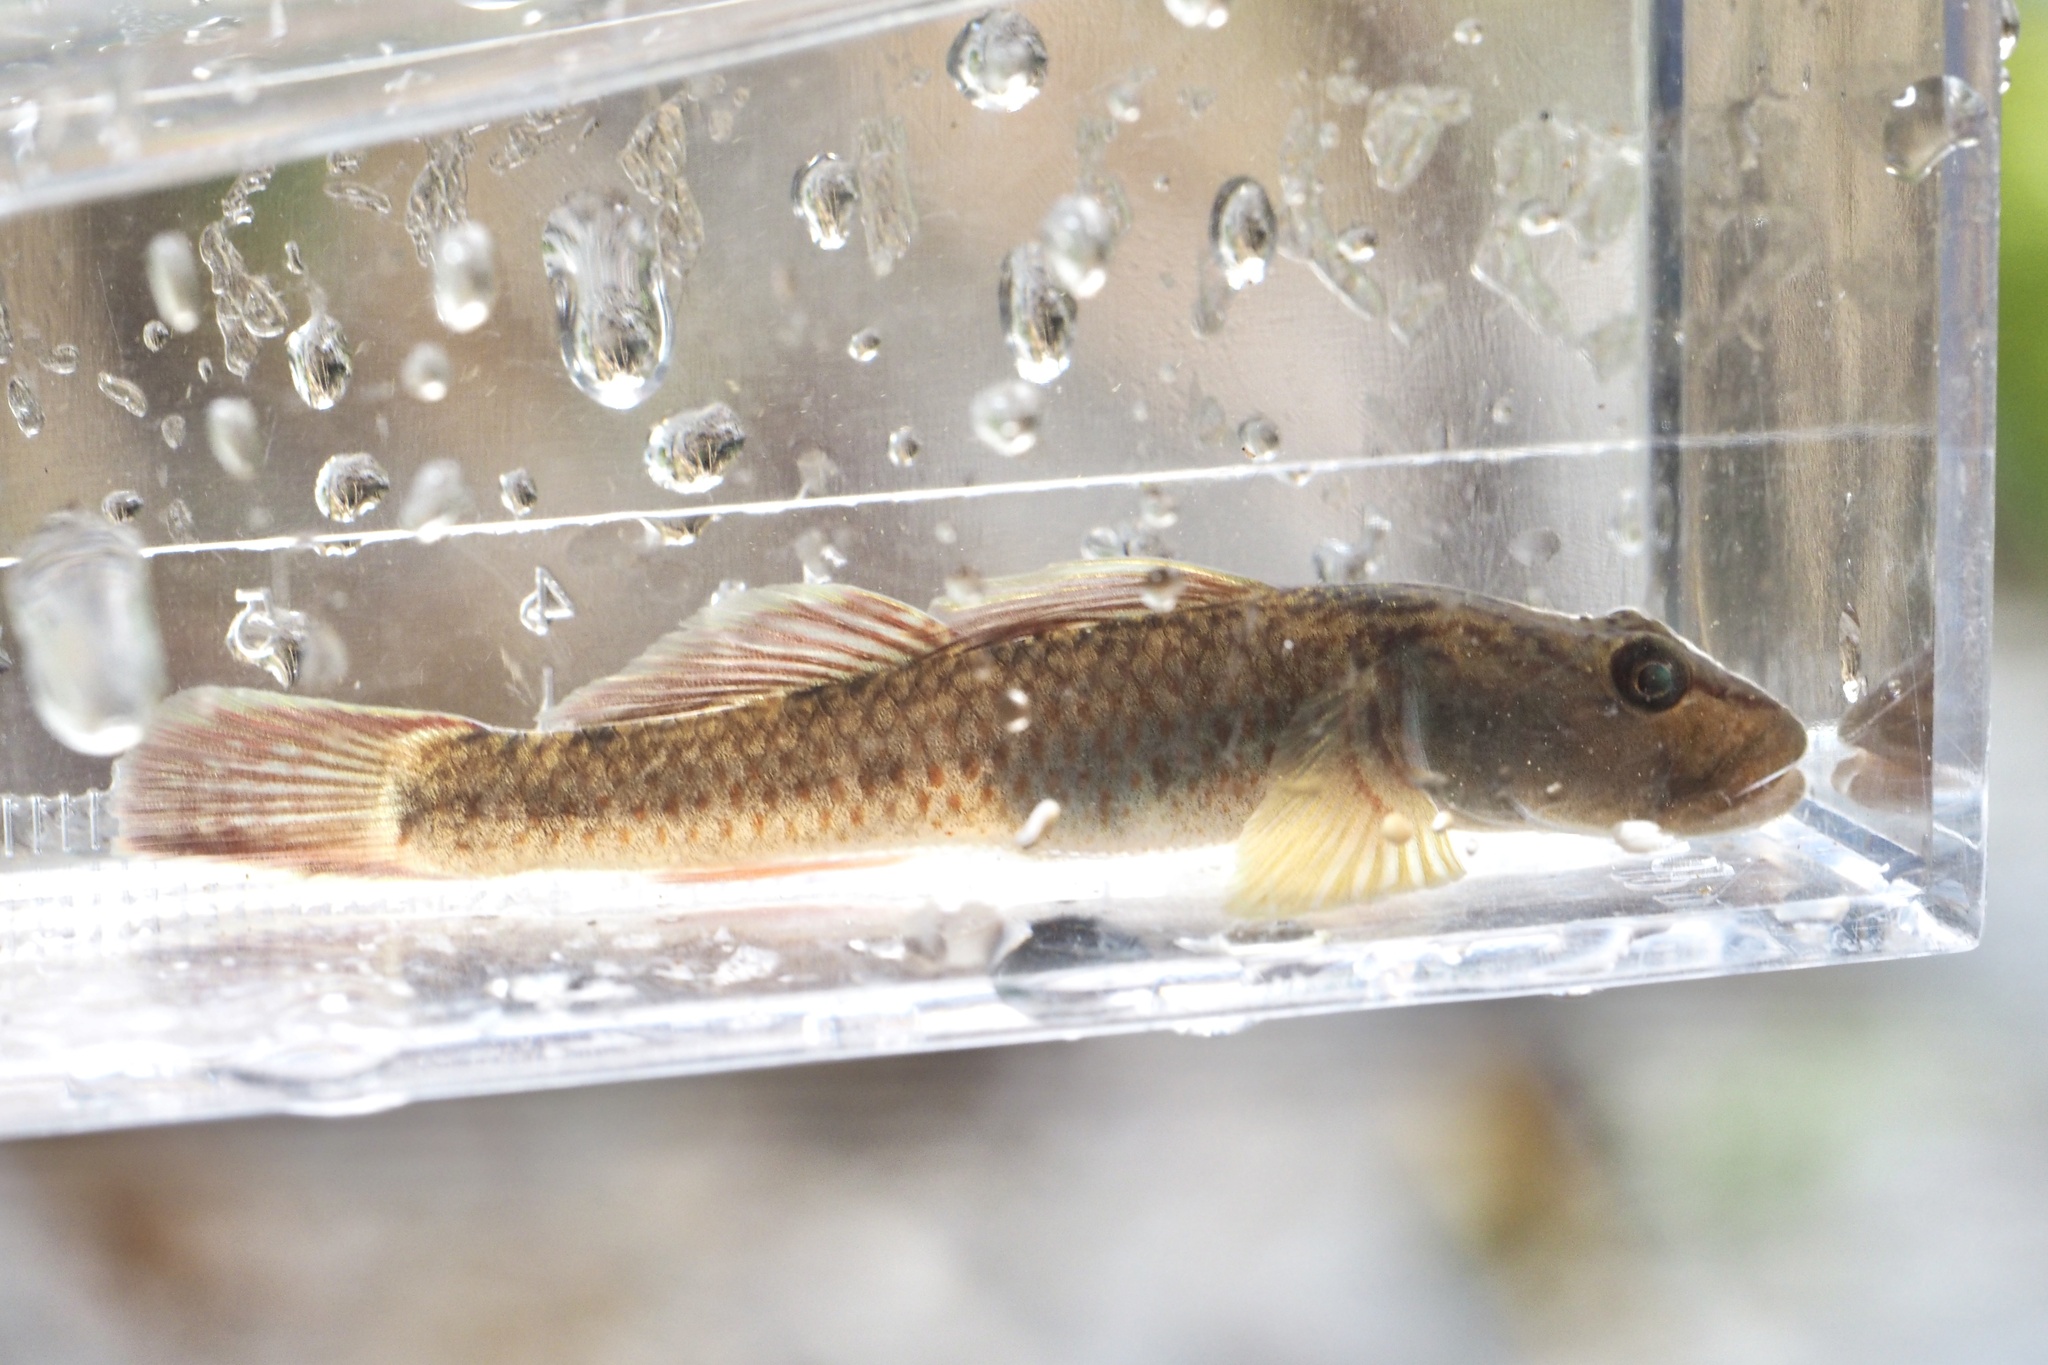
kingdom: Animalia
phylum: Chordata
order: Perciformes
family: Gobiidae
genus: Rhinogobius
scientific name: Rhinogobius flumineus
